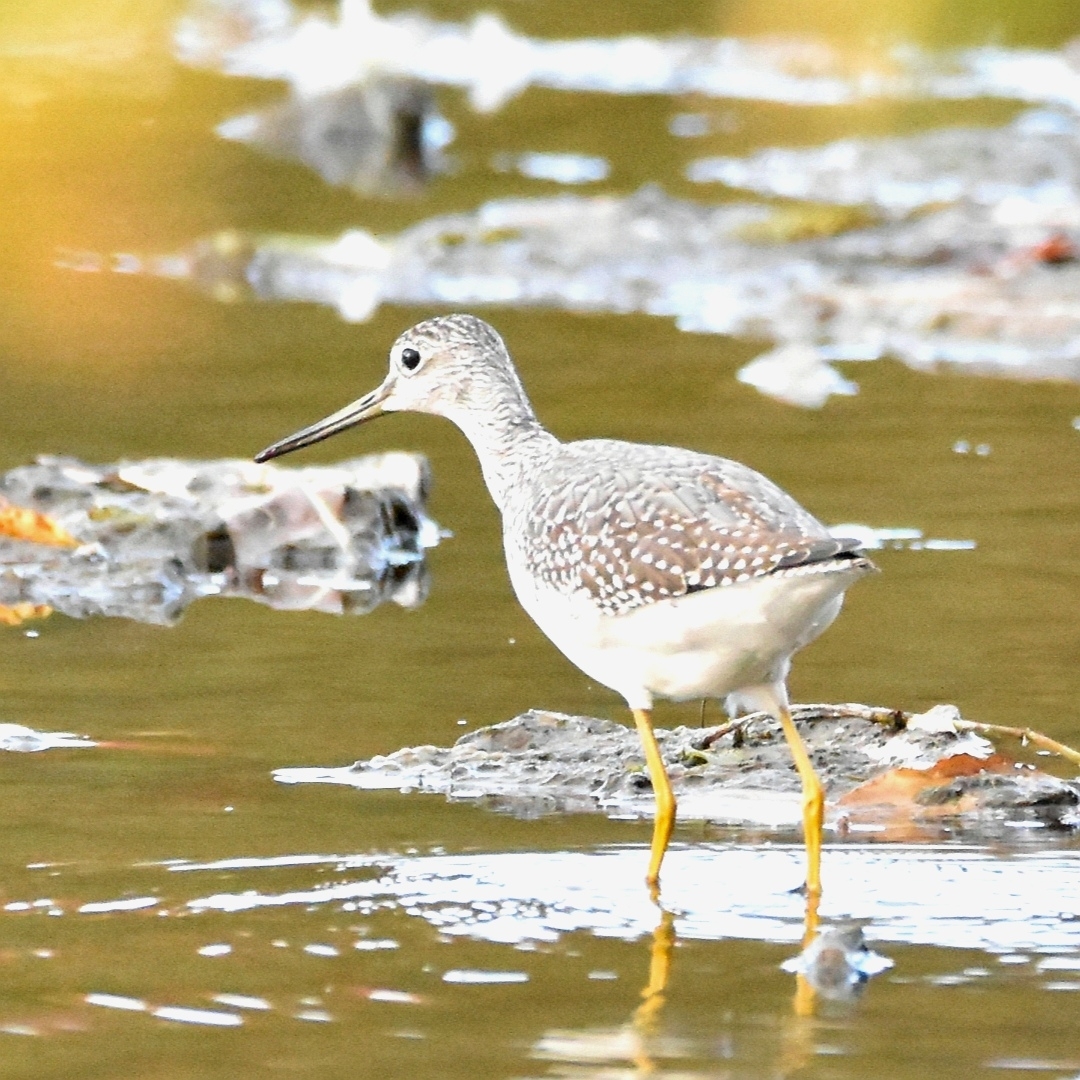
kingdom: Animalia
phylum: Chordata
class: Aves
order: Charadriiformes
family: Scolopacidae
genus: Tringa
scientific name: Tringa melanoleuca
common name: Greater yellowlegs
